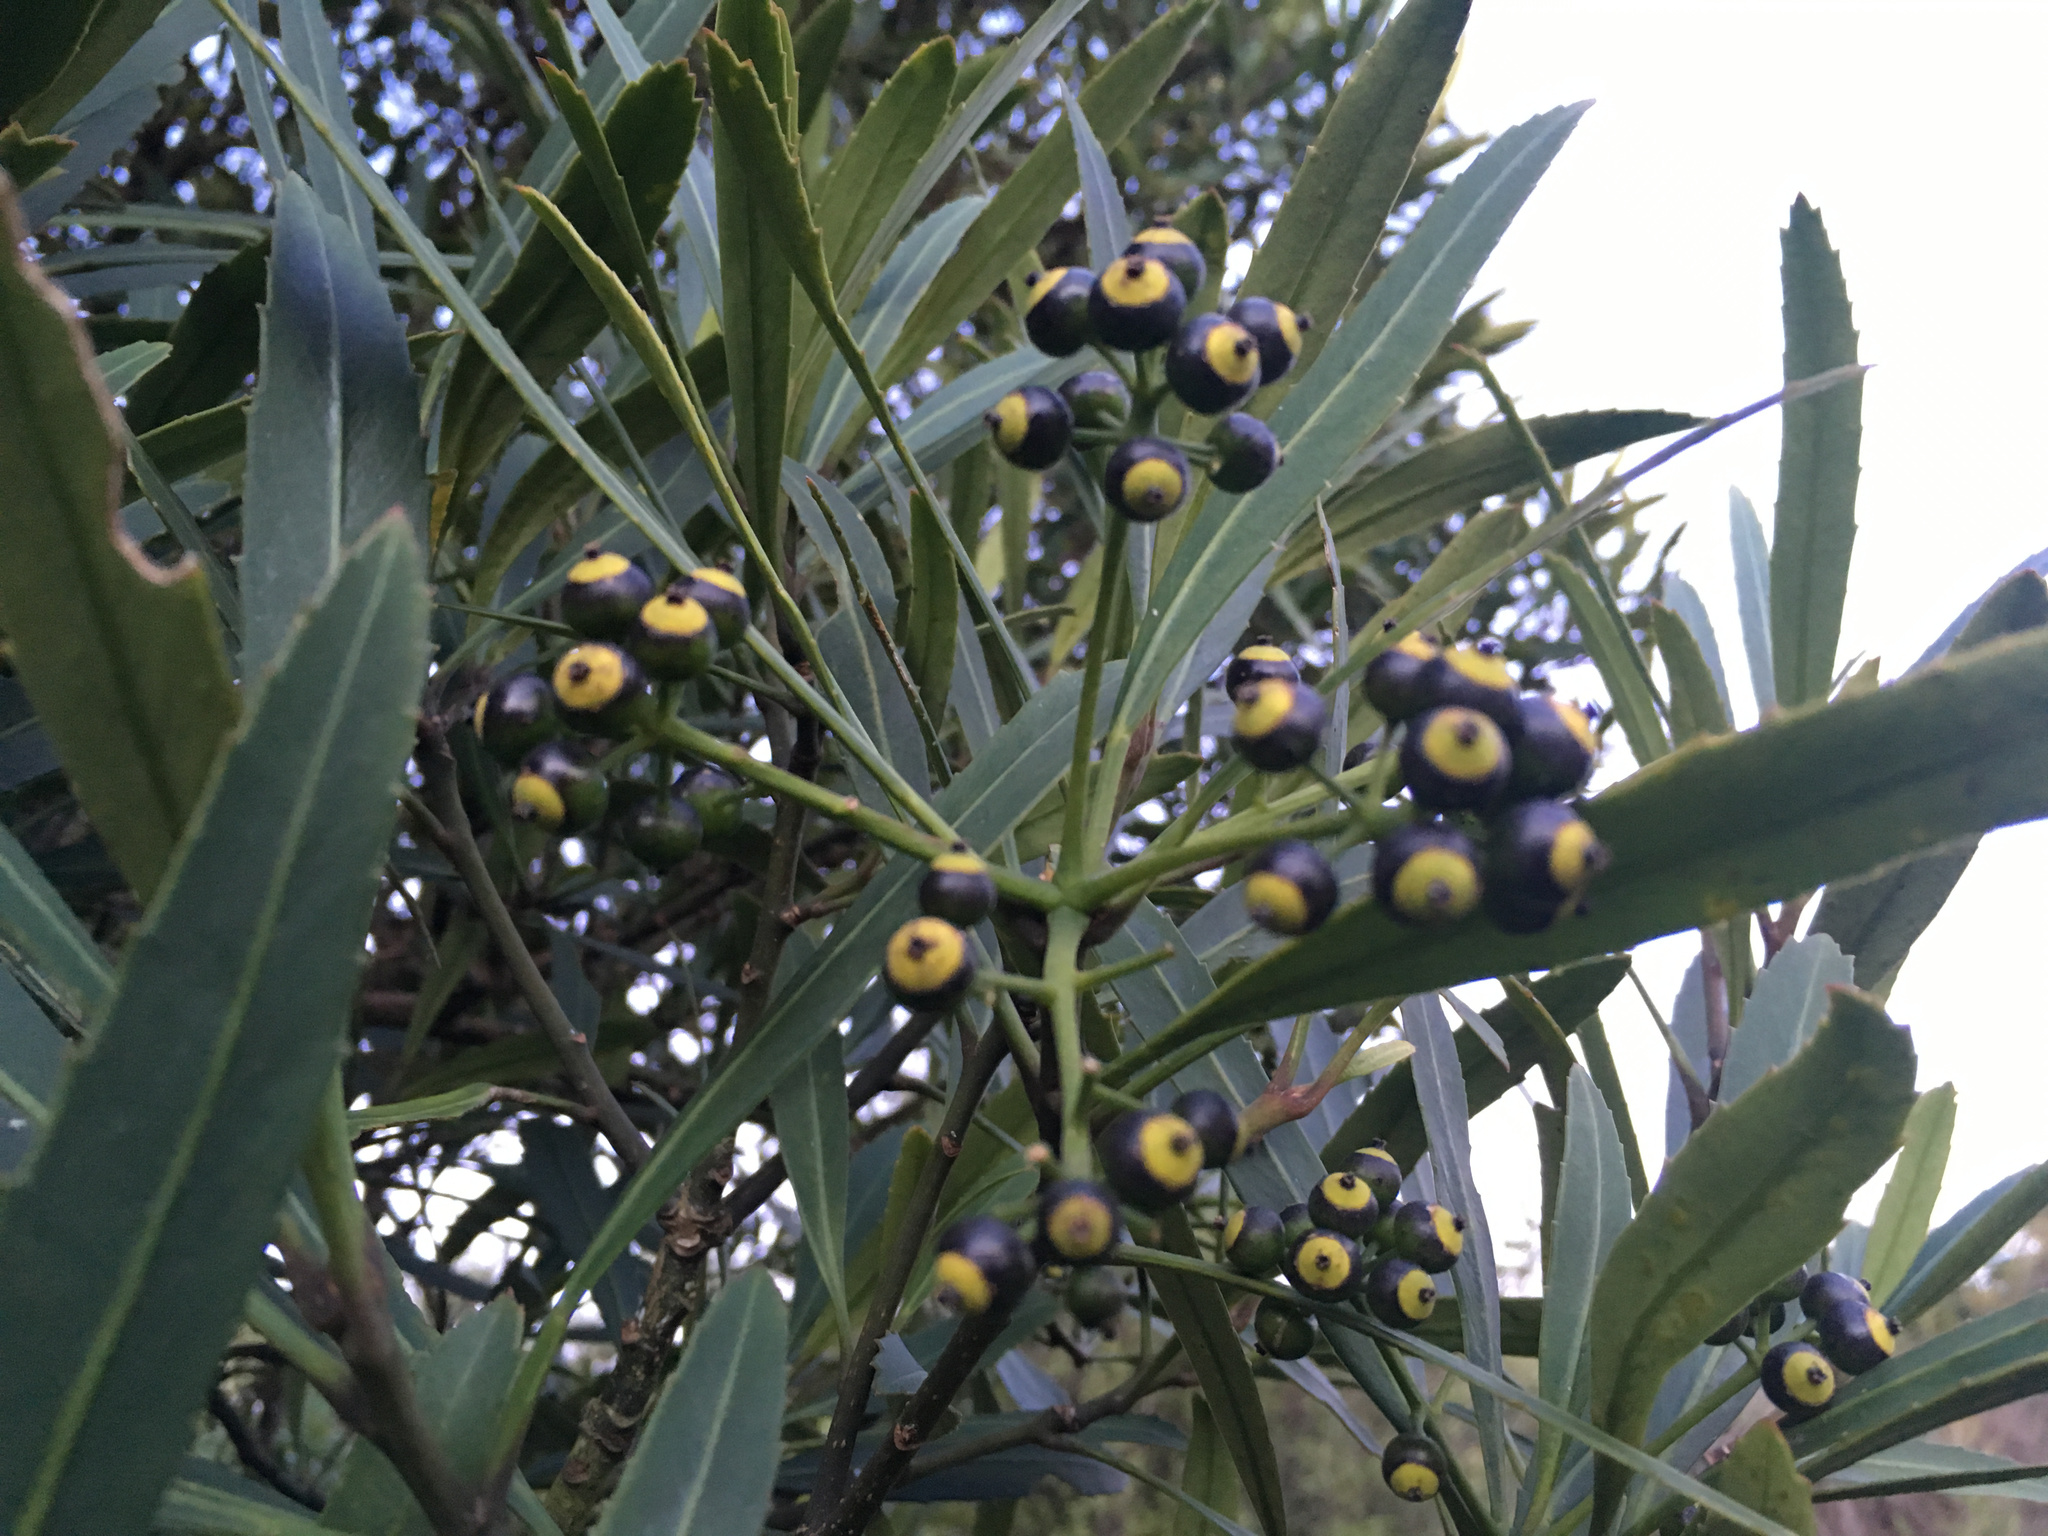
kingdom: Plantae
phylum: Tracheophyta
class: Magnoliopsida
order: Apiales
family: Araliaceae
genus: Pseudopanax
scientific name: Pseudopanax crassifolius
